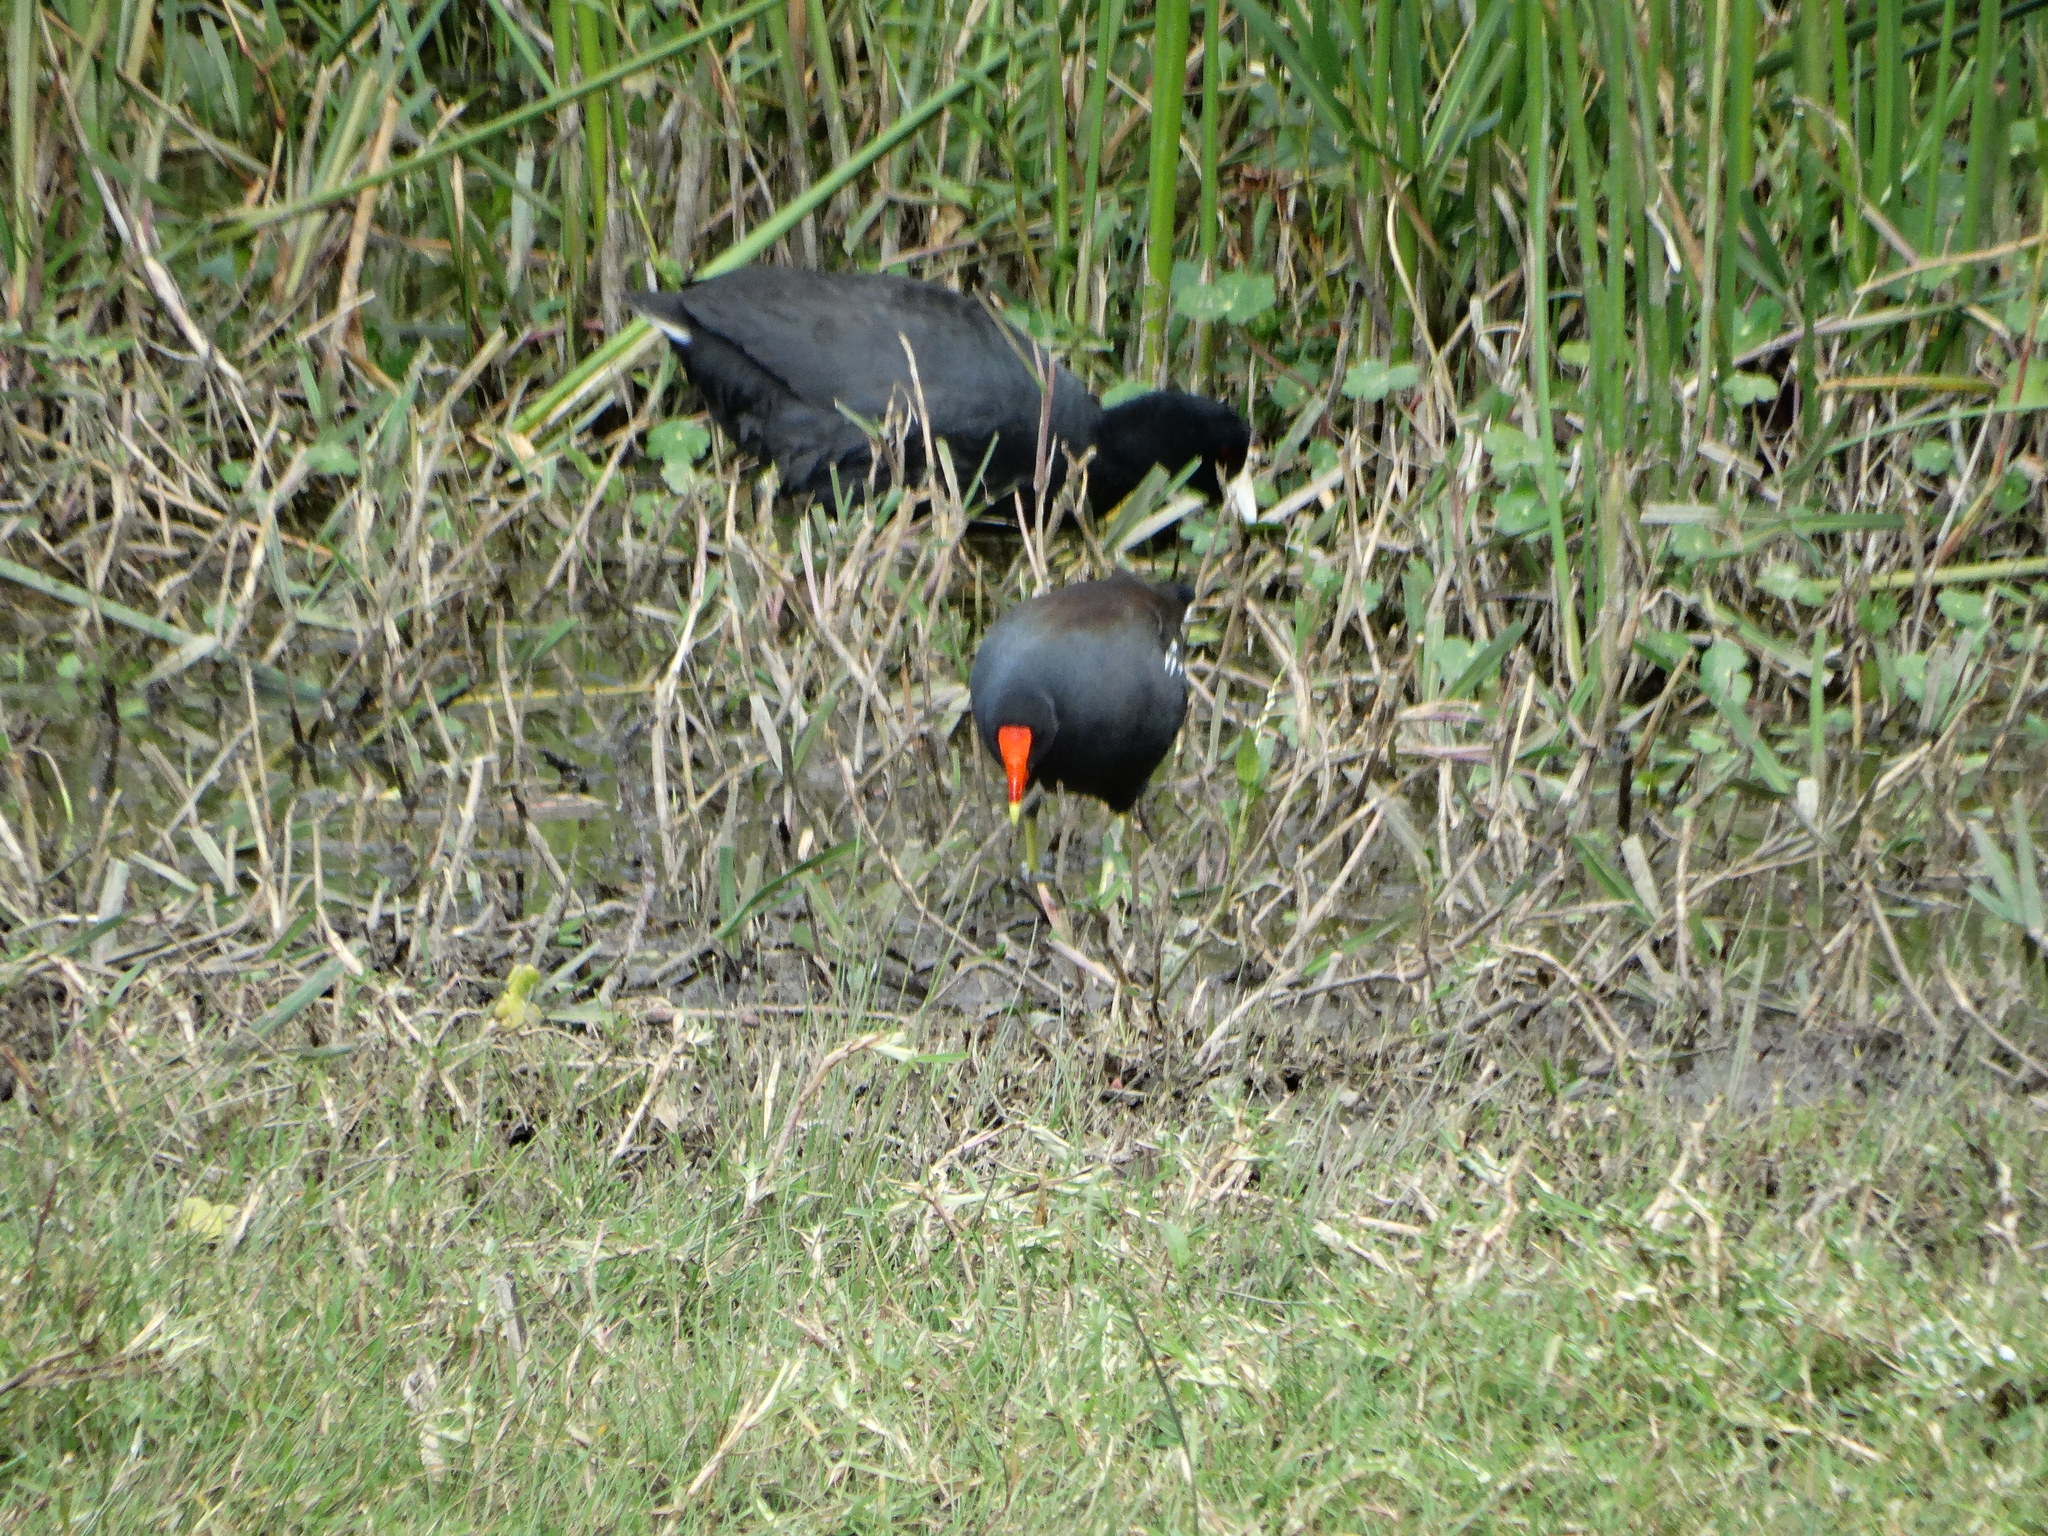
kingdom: Animalia
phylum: Chordata
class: Aves
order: Gruiformes
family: Rallidae
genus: Gallinula
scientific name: Gallinula chloropus
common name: Common moorhen
